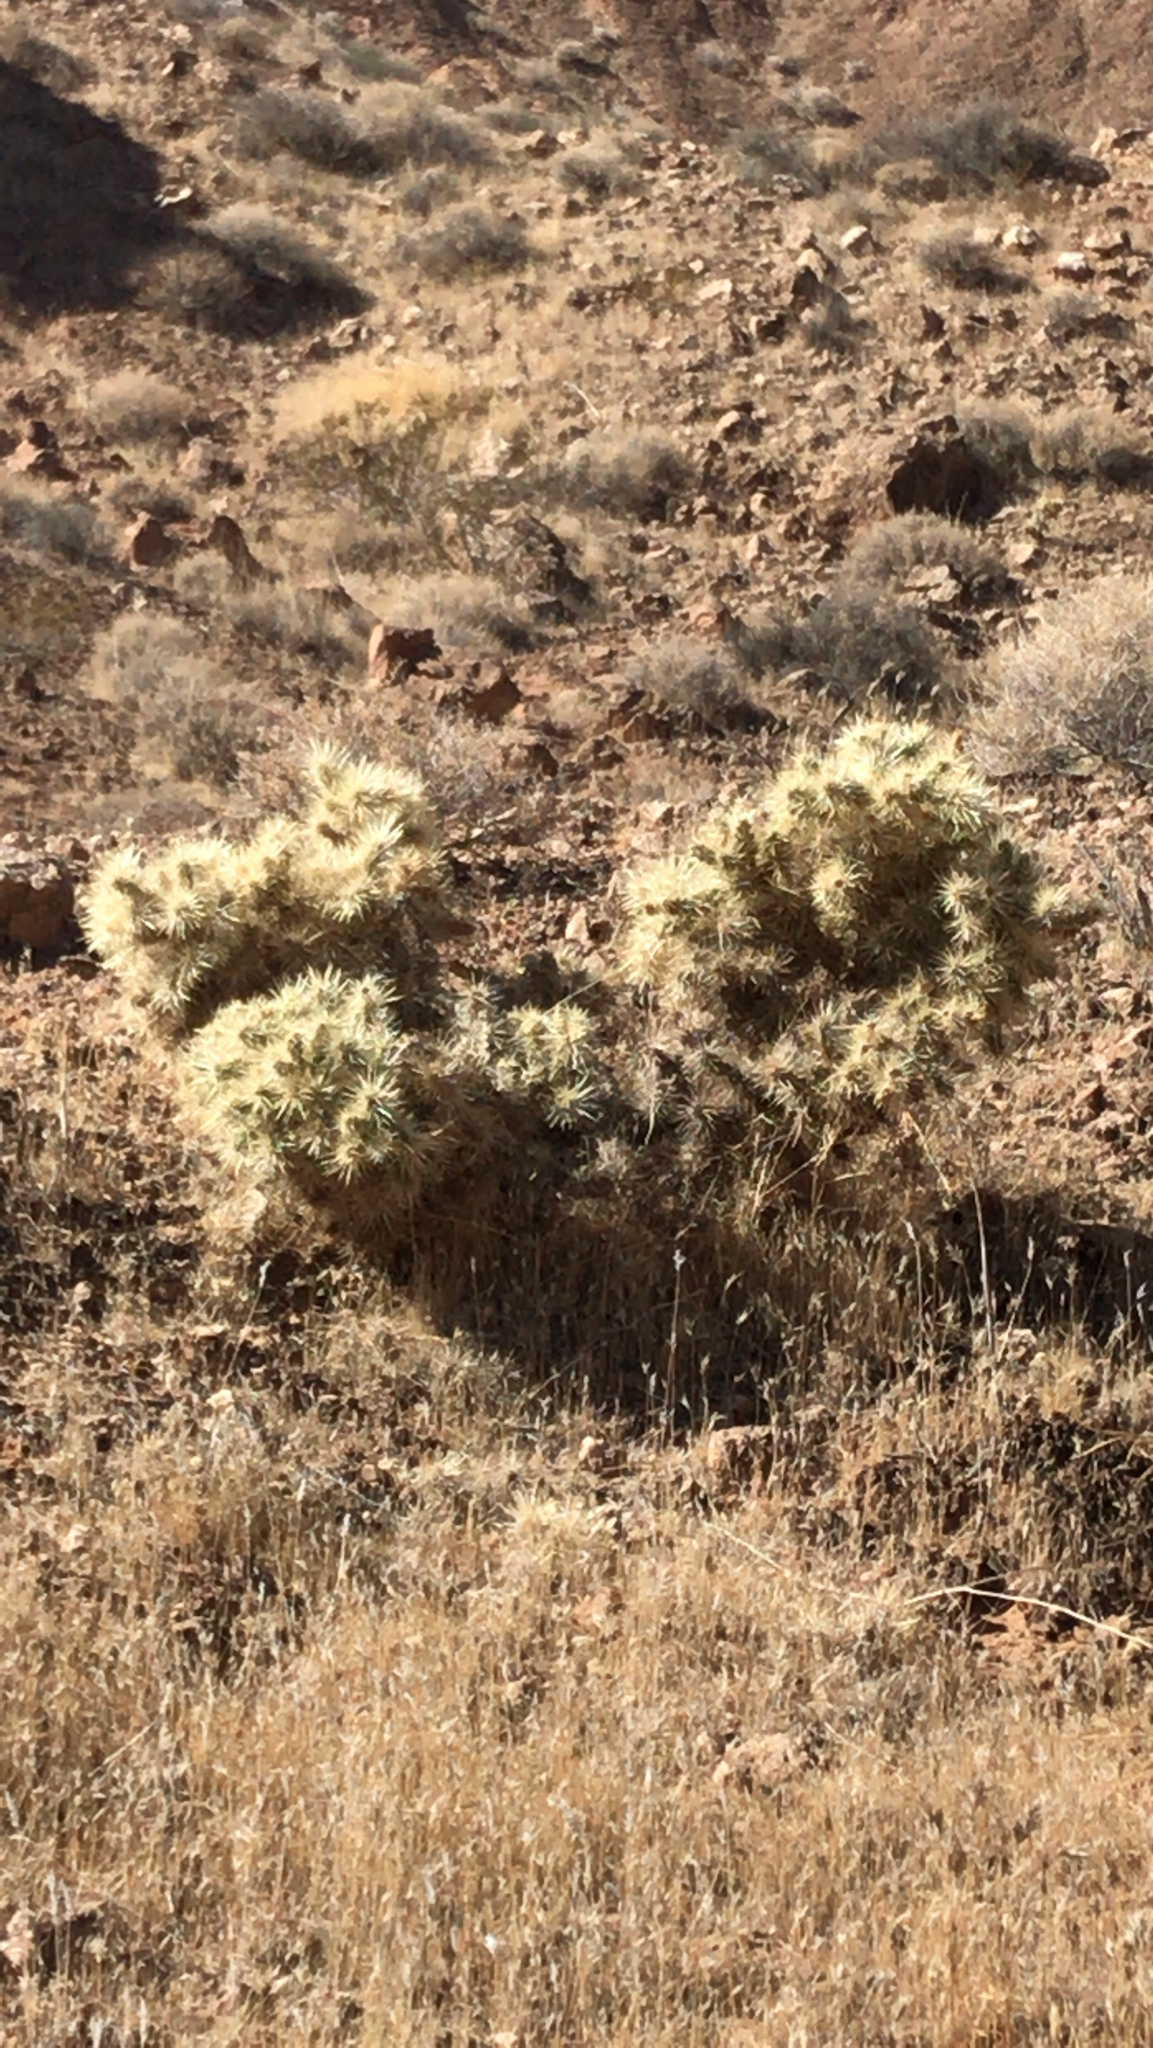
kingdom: Plantae
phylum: Tracheophyta
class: Magnoliopsida
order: Caryophyllales
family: Cactaceae
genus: Cylindropuntia
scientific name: Cylindropuntia echinocarpa
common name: Ground cholla
